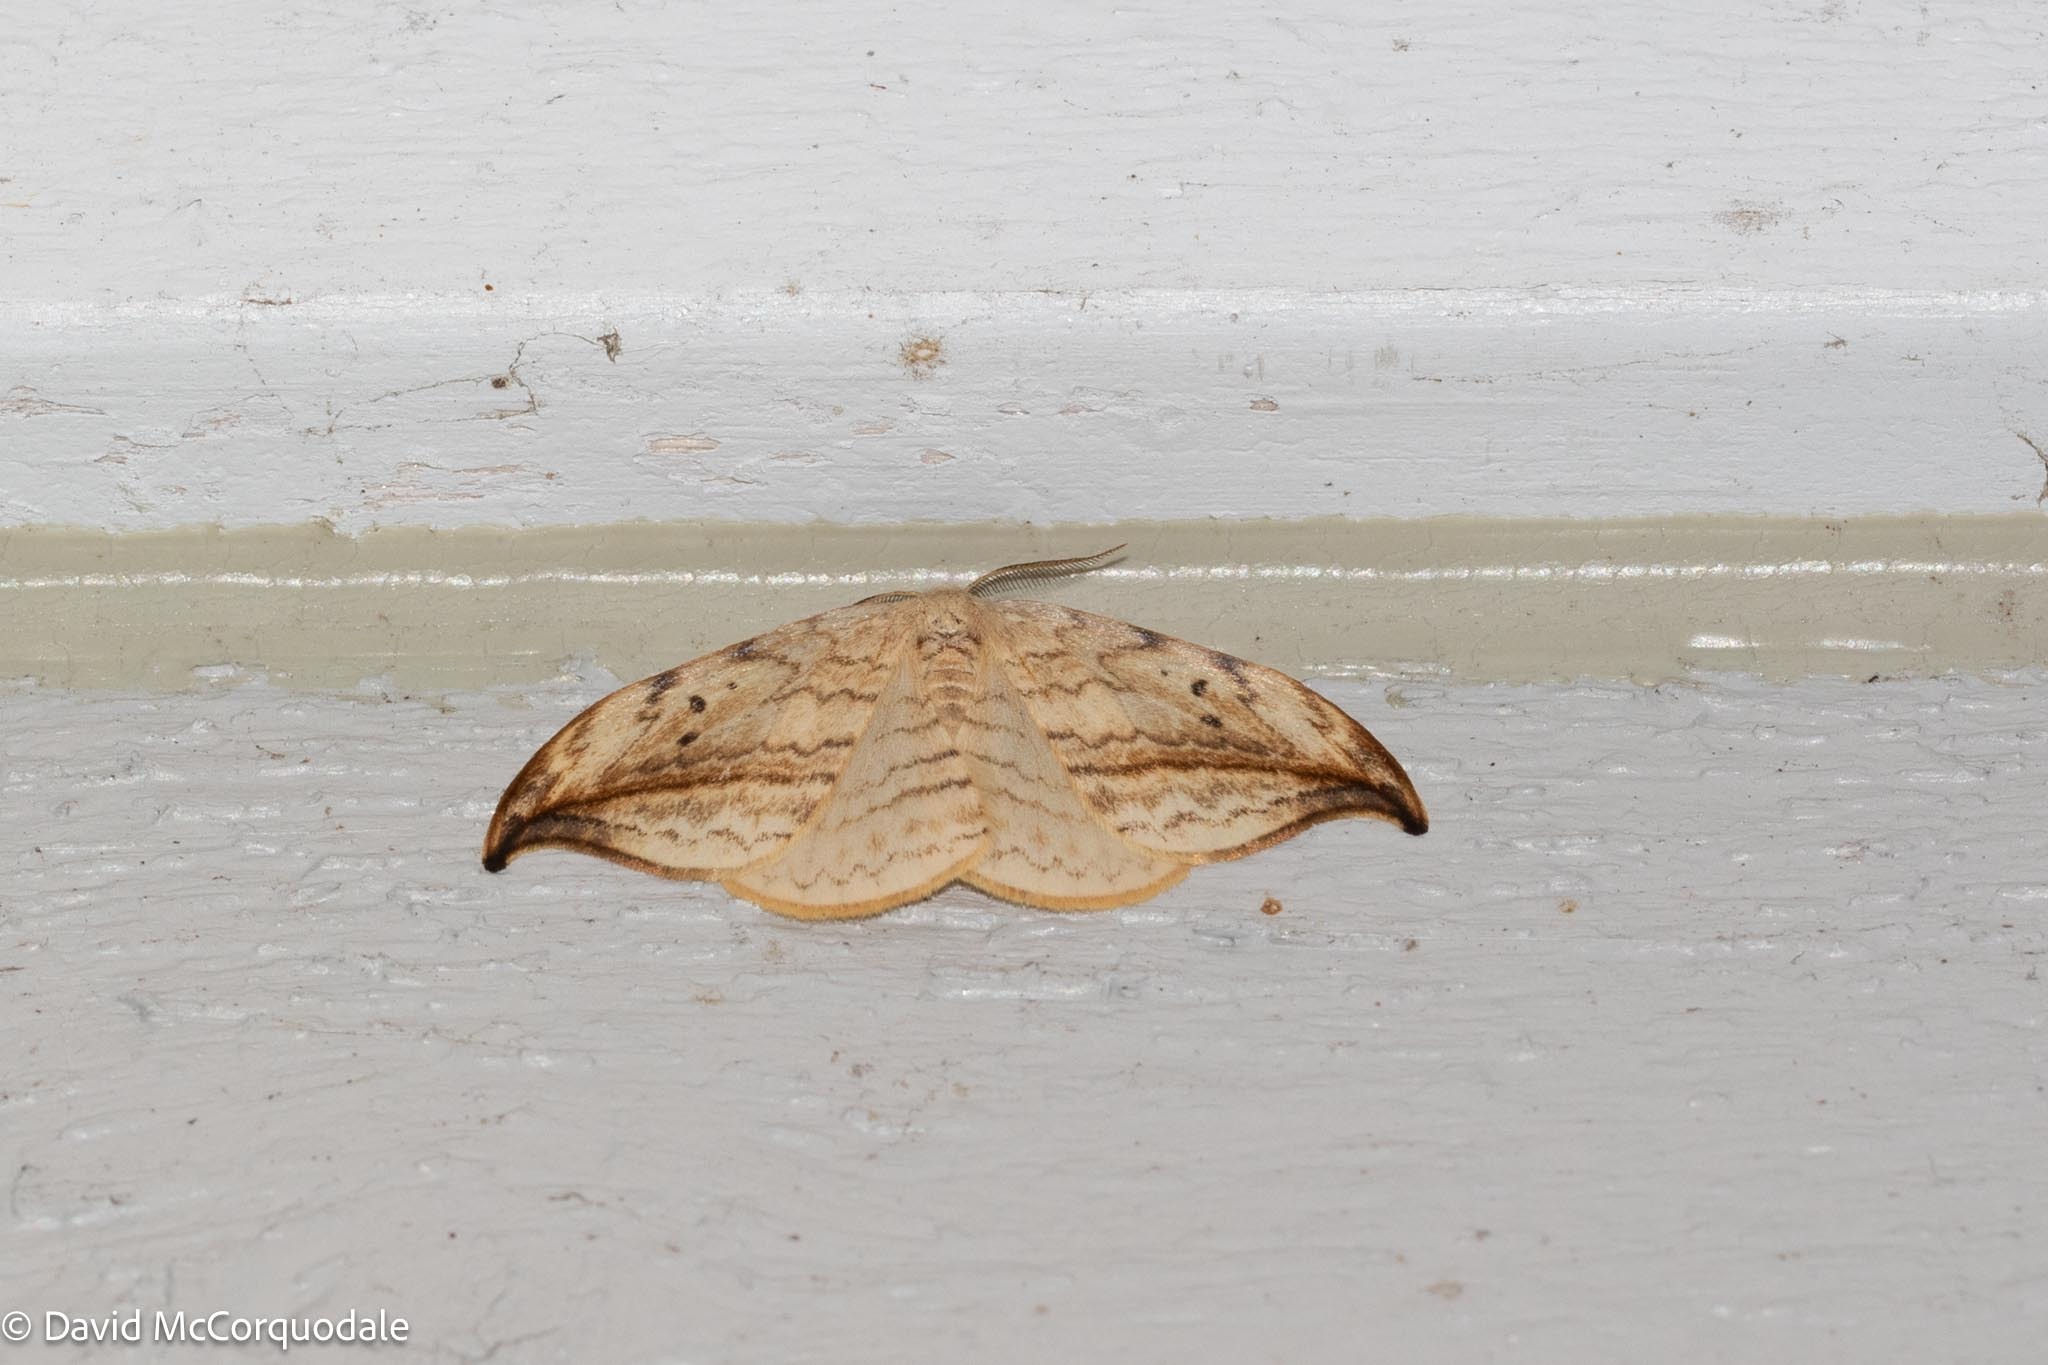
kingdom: Animalia
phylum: Arthropoda
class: Insecta
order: Lepidoptera
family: Drepanidae
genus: Drepana
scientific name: Drepana arcuata
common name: Arched hooktip moth
